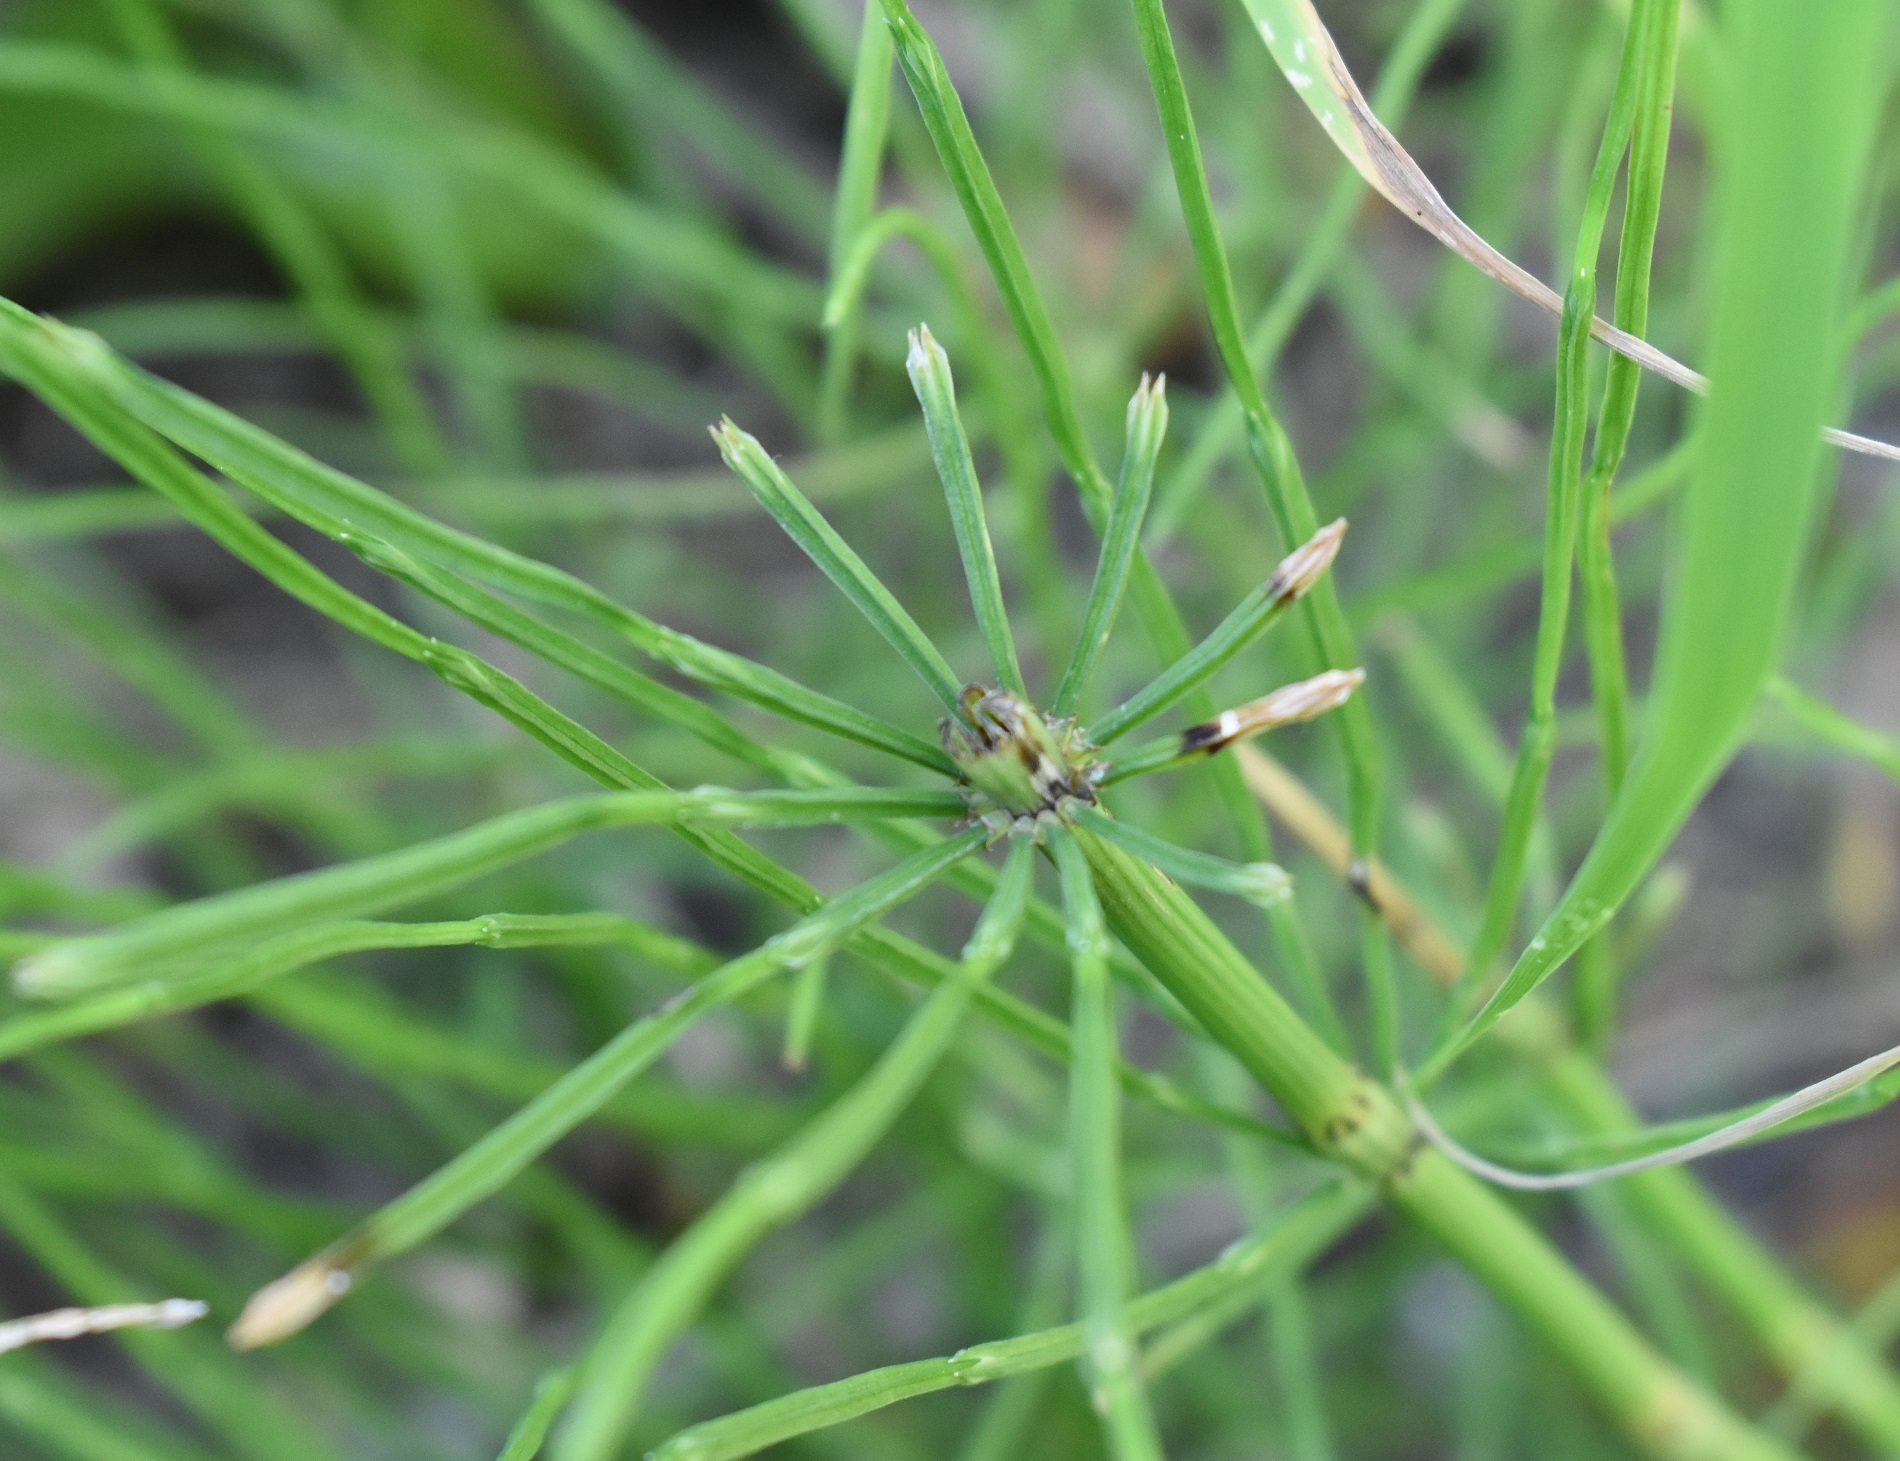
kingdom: Plantae
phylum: Tracheophyta
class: Polypodiopsida
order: Equisetales
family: Equisetaceae
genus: Equisetum
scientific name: Equisetum arvense
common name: Field horsetail
